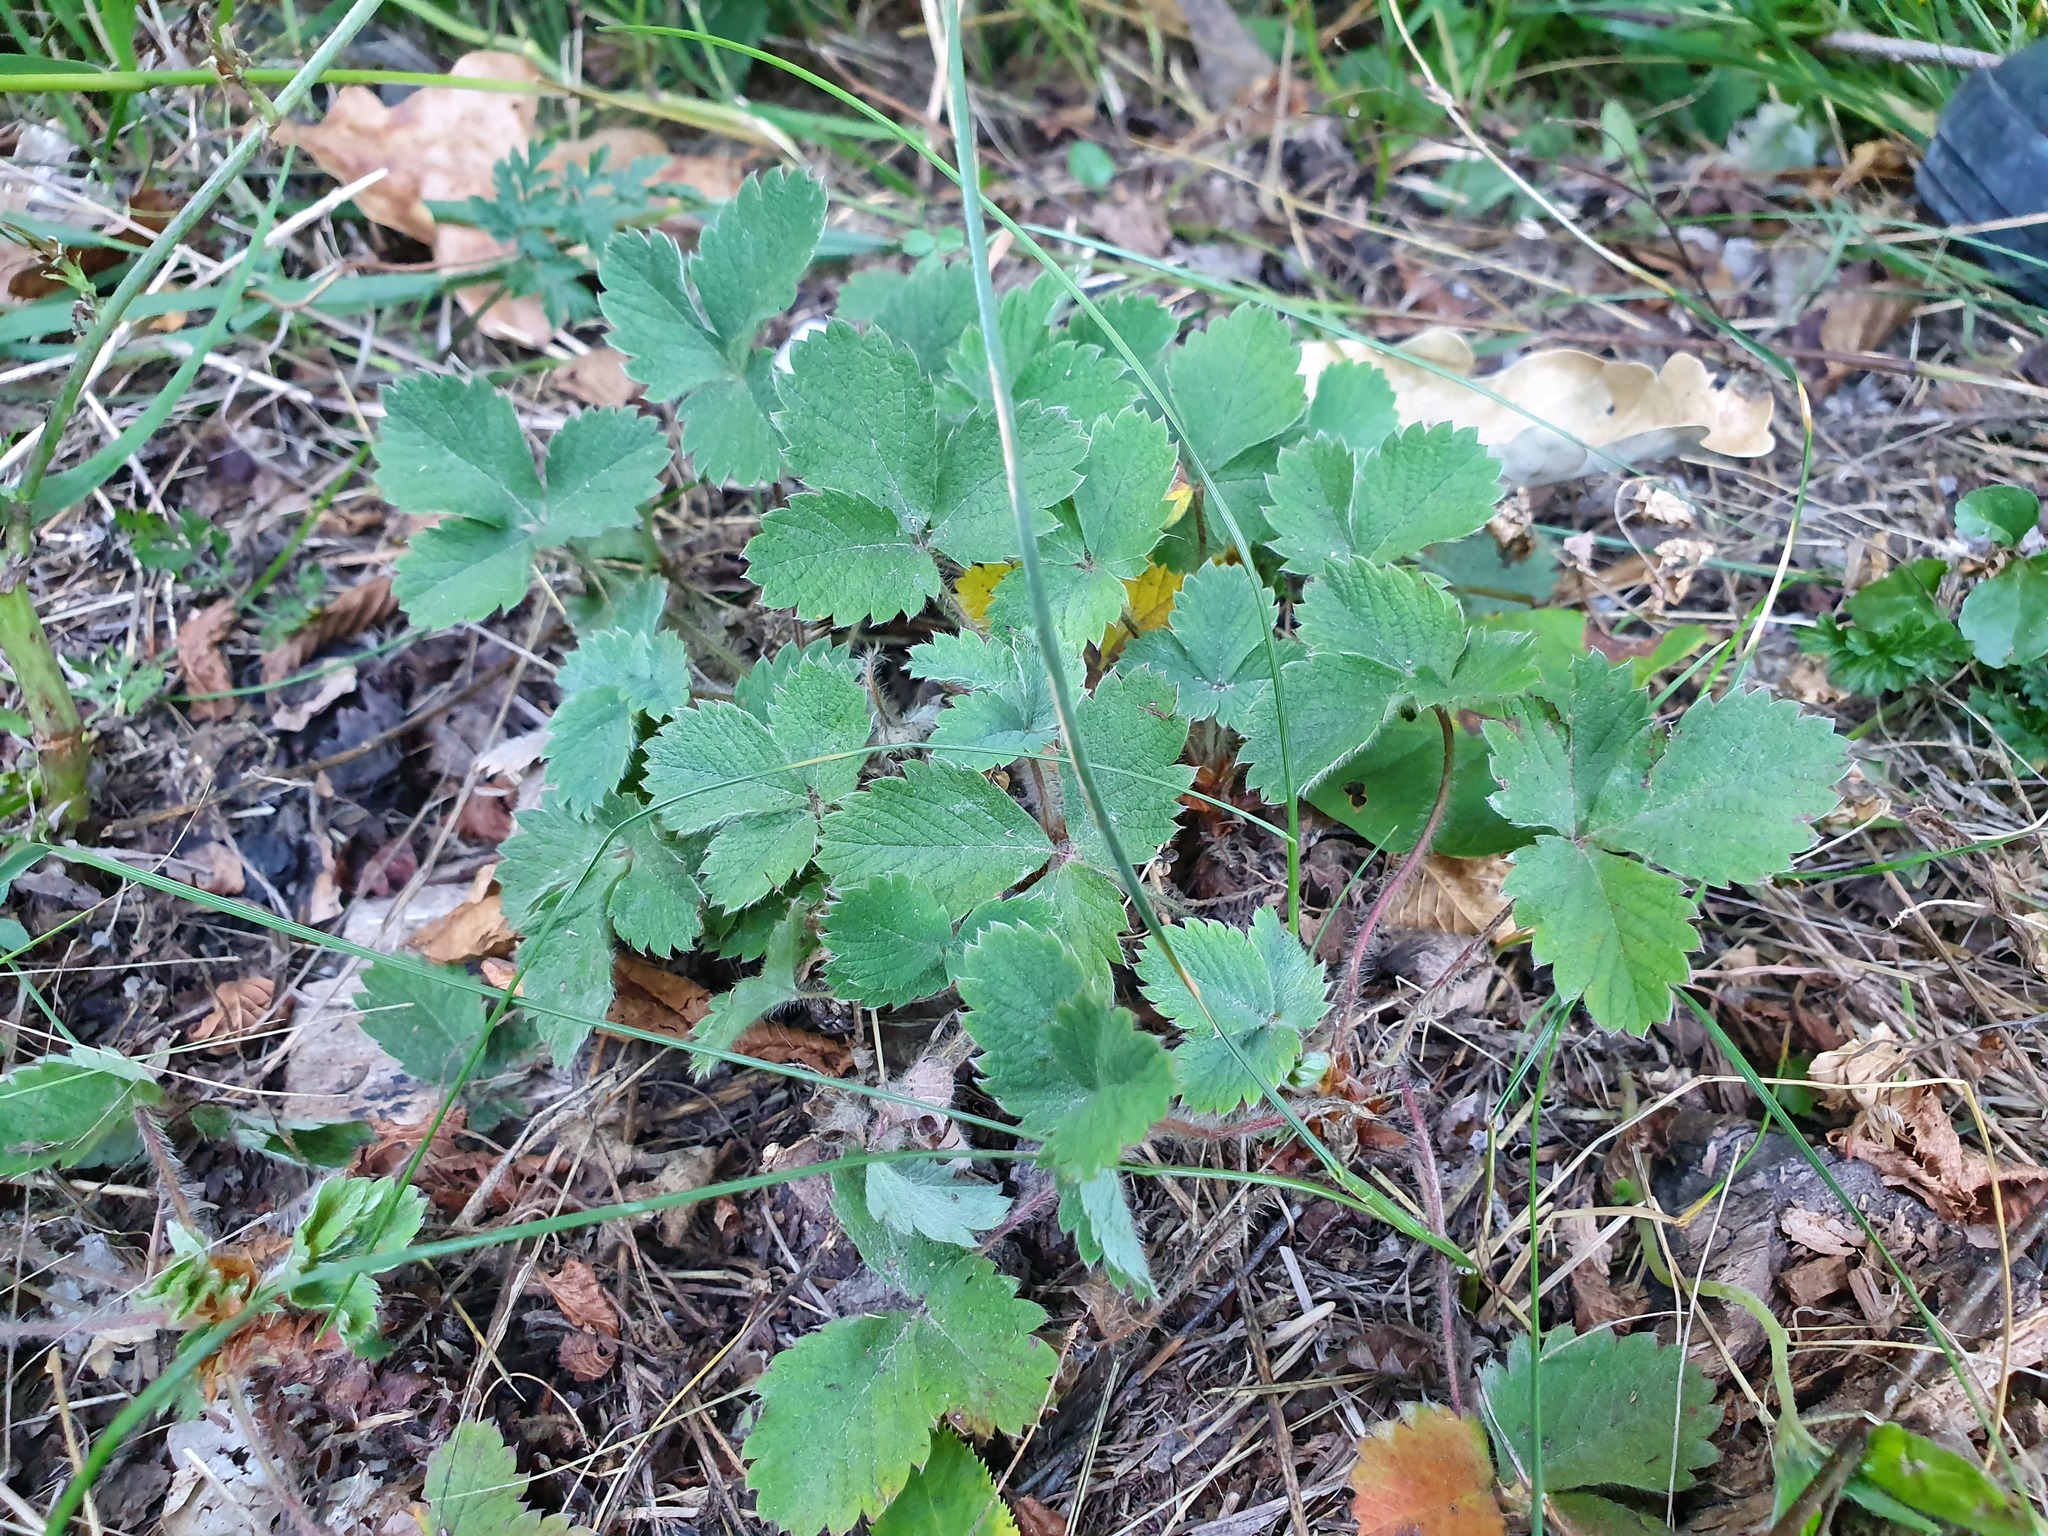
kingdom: Plantae
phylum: Tracheophyta
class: Magnoliopsida
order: Rosales
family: Rosaceae
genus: Potentilla
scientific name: Potentilla micrantha
